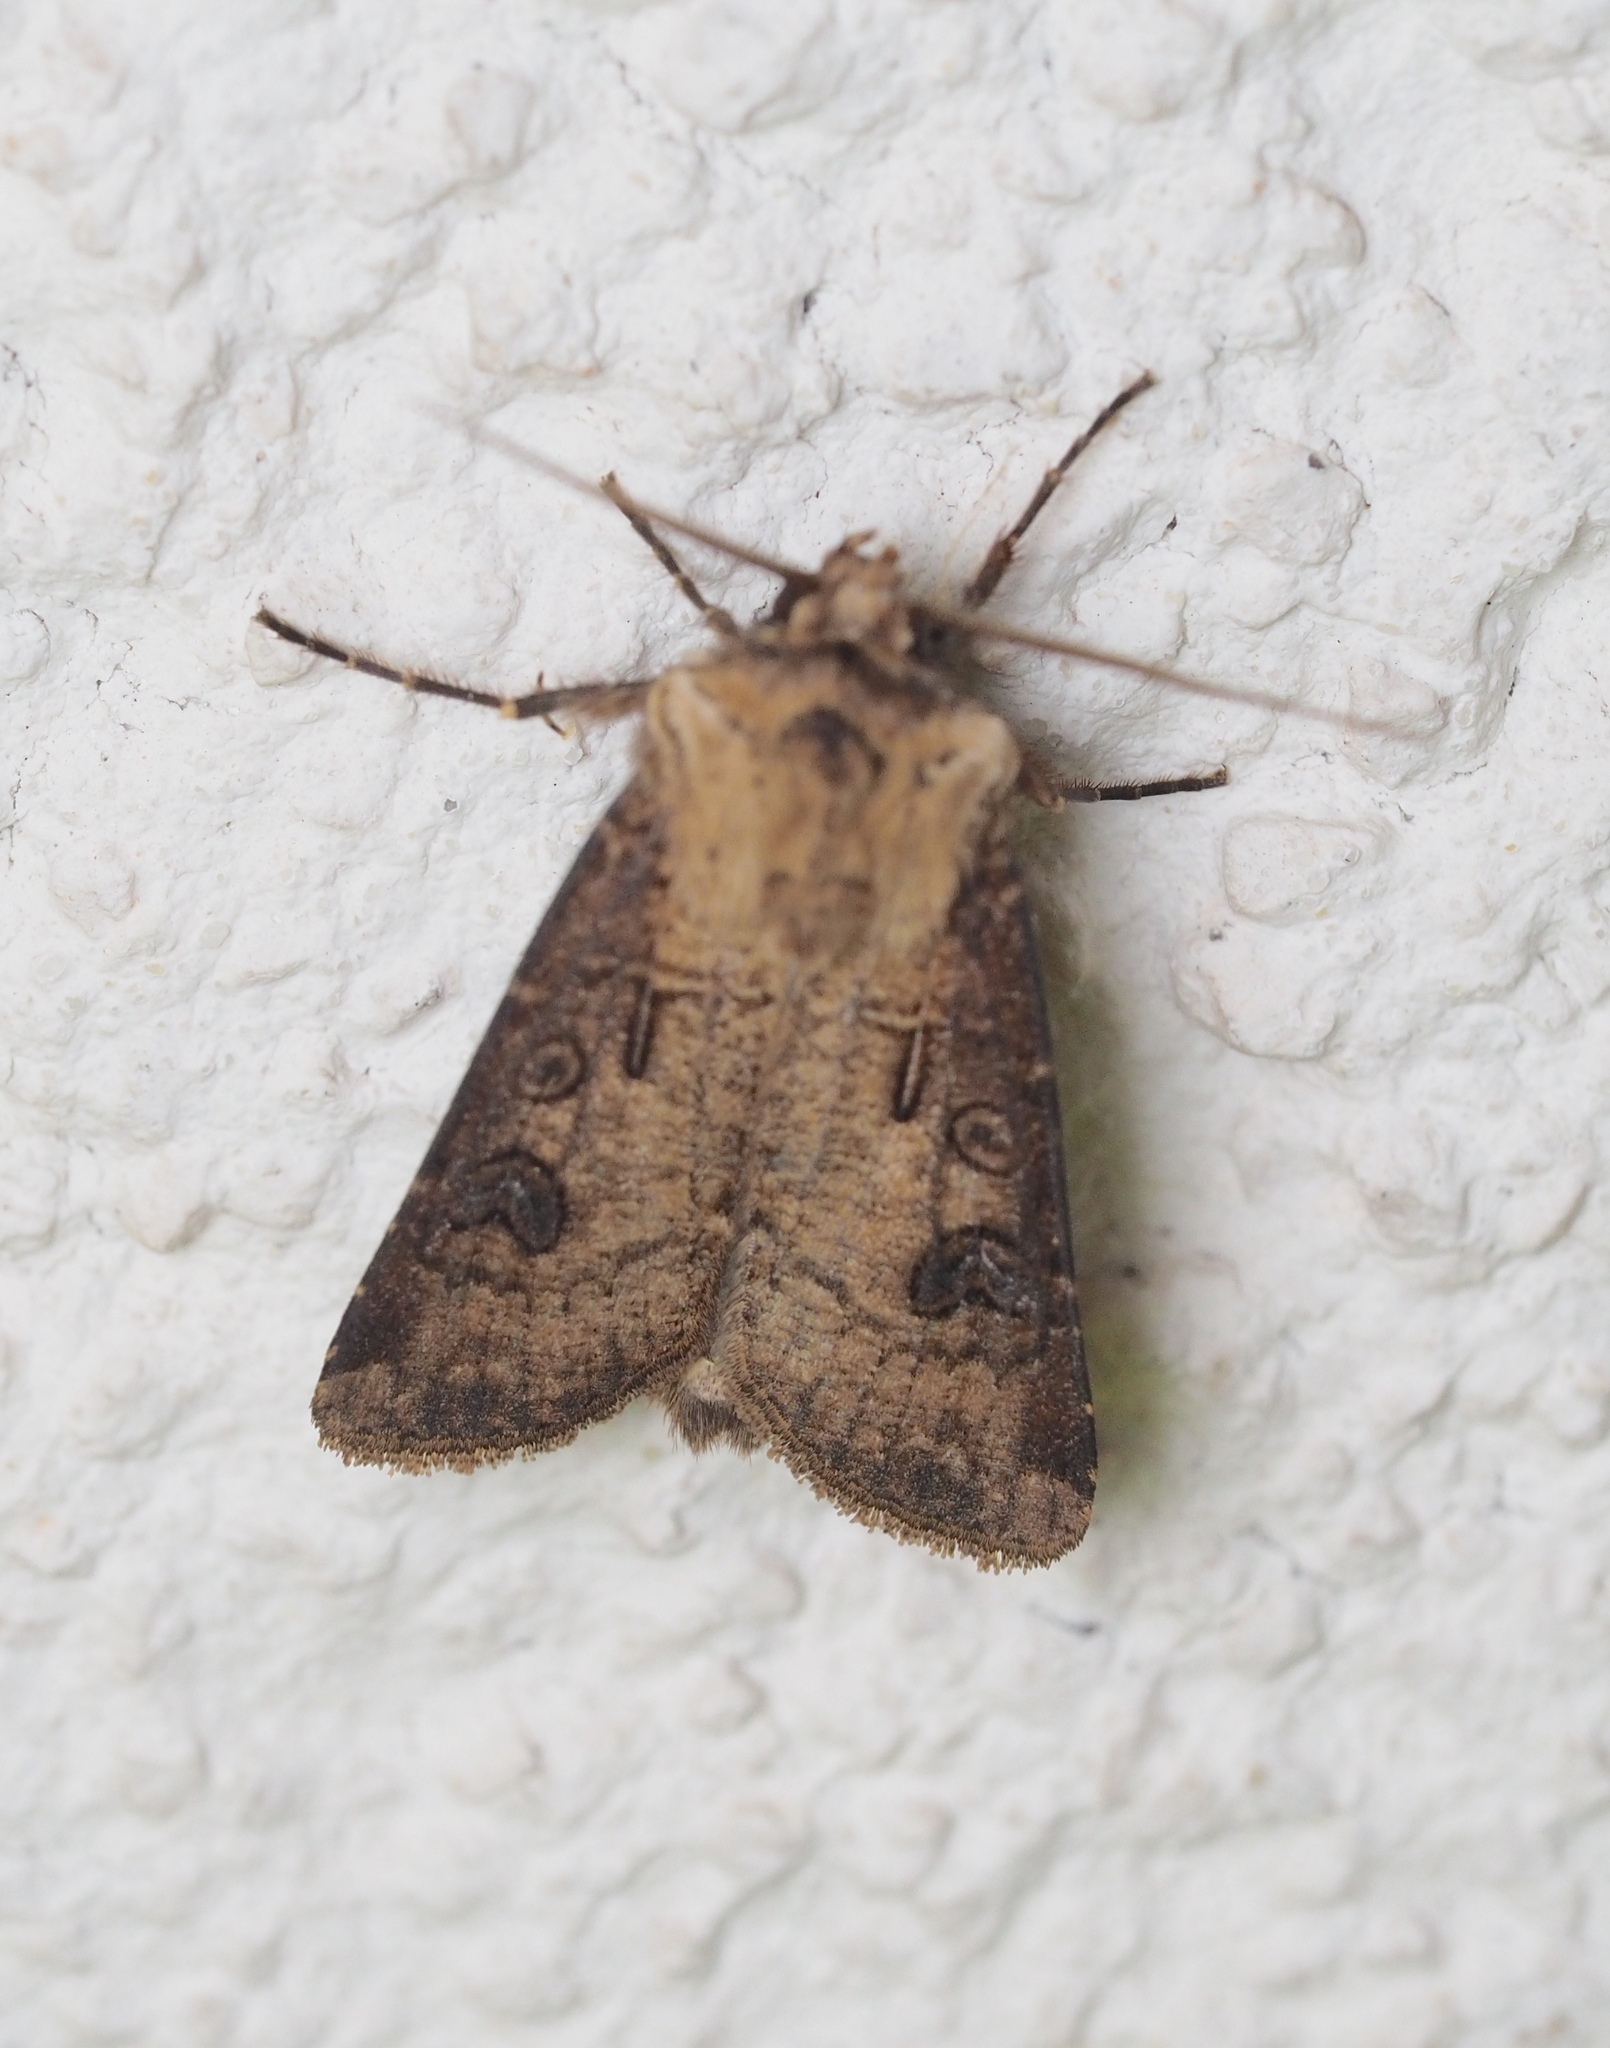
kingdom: Animalia
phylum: Arthropoda
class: Insecta
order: Lepidoptera
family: Noctuidae
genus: Agrotis
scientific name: Agrotis clavis
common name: Heart and club
